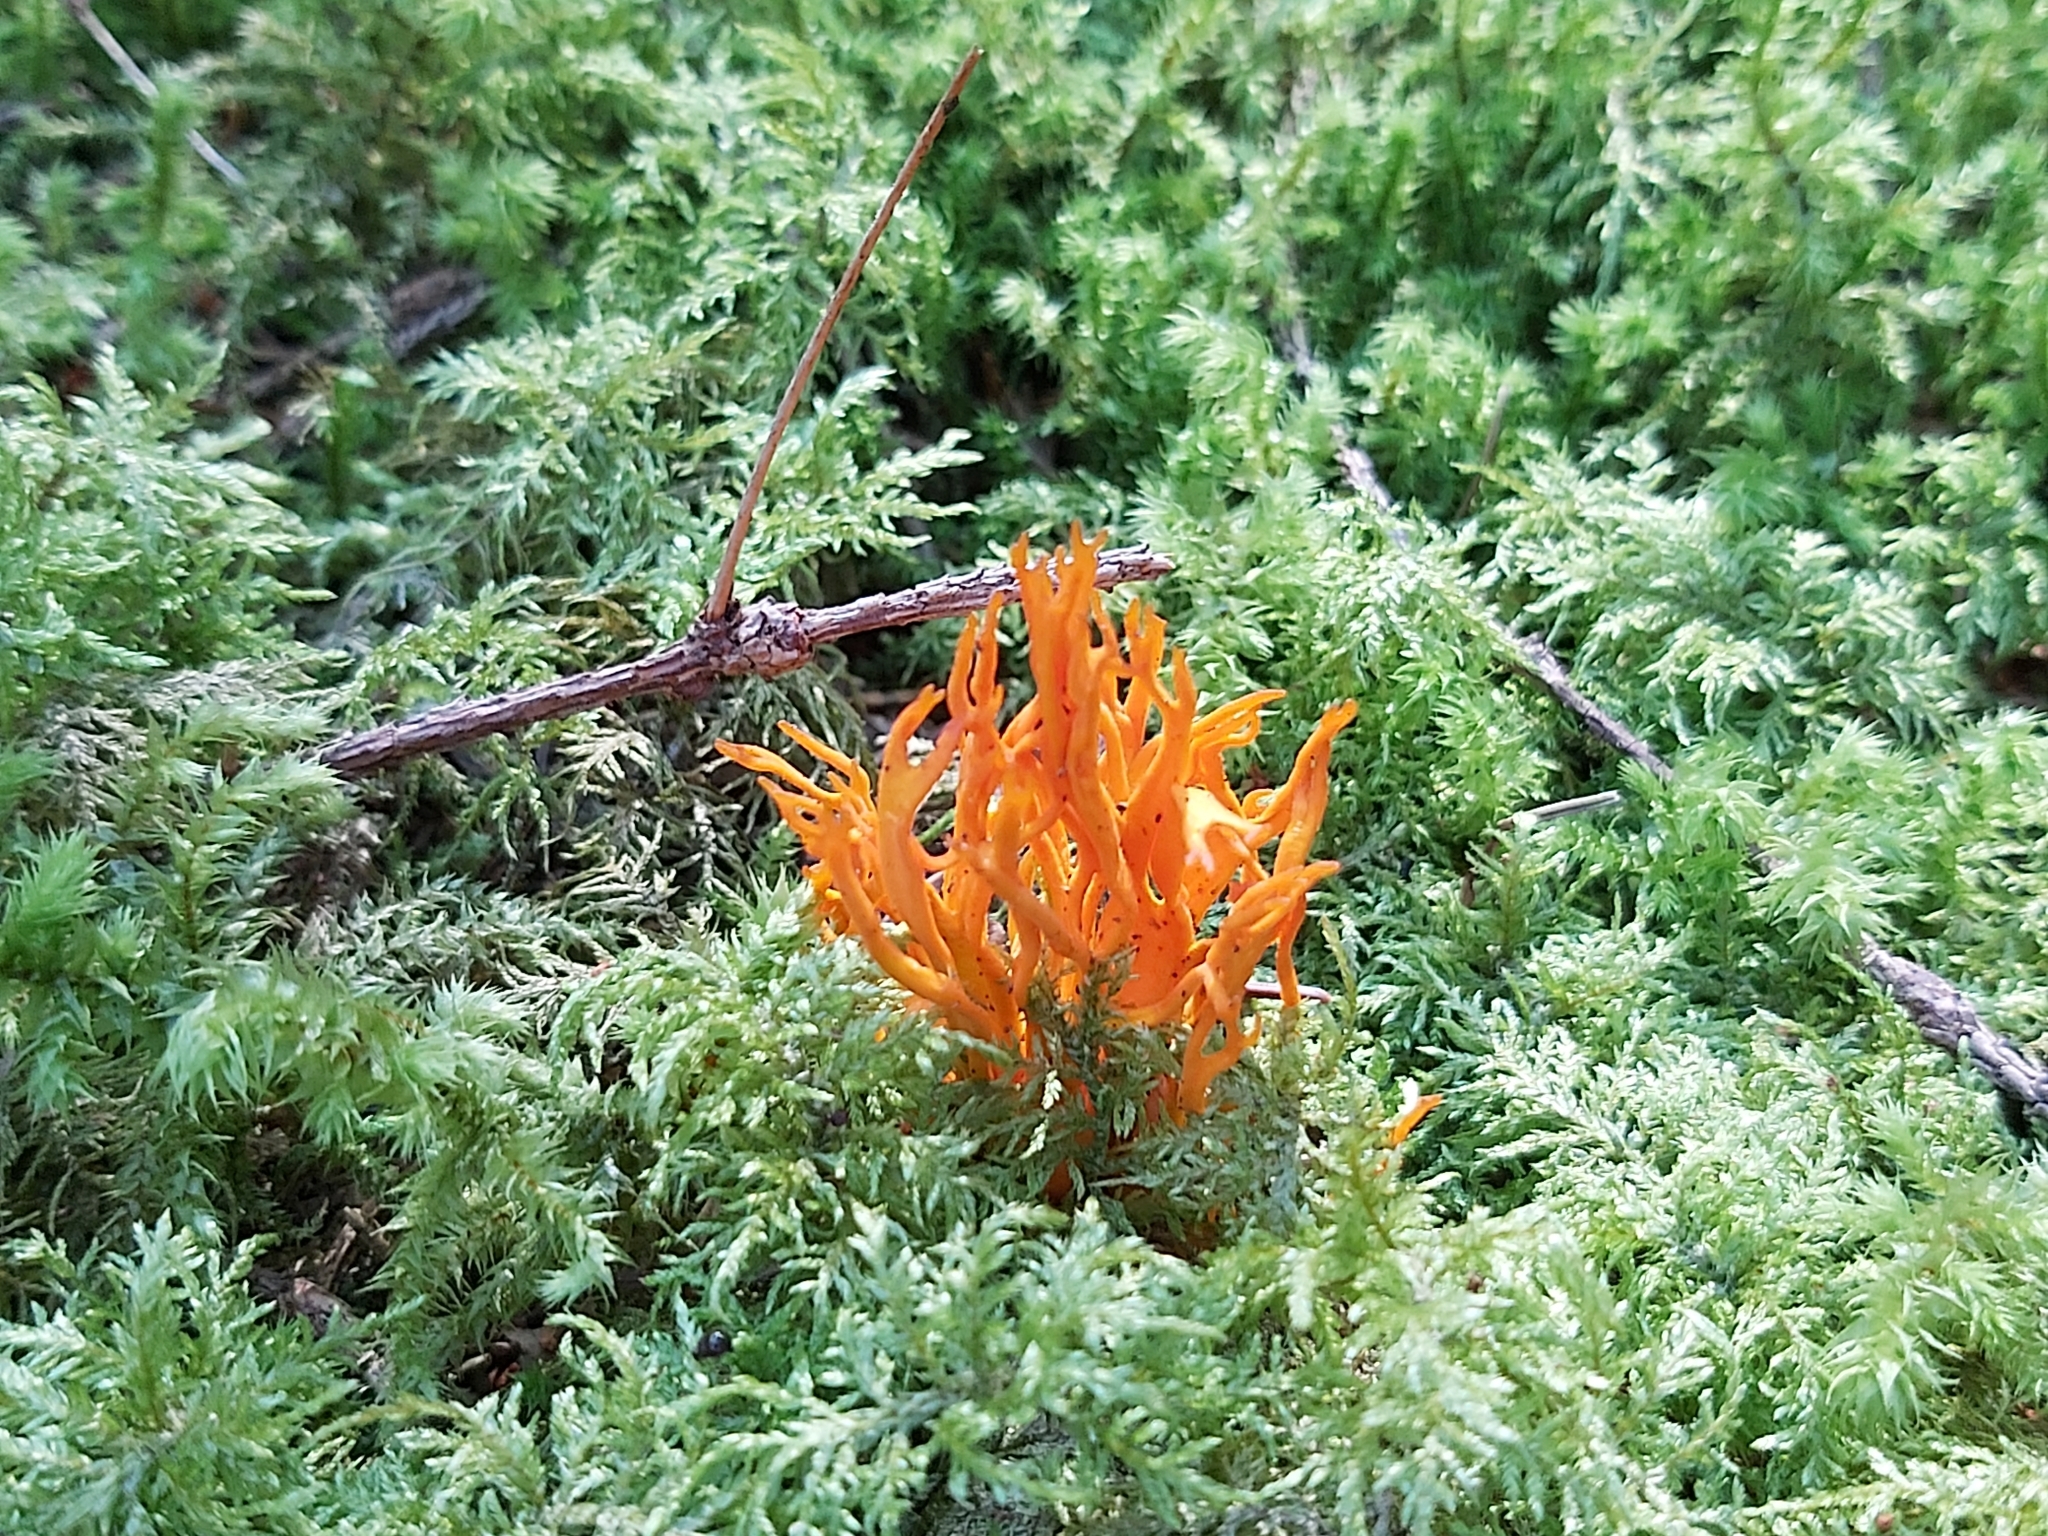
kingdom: Fungi
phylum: Basidiomycota
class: Dacrymycetes
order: Dacrymycetales
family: Dacrymycetaceae
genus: Calocera
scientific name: Calocera viscosa
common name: Yellow stagshorn
